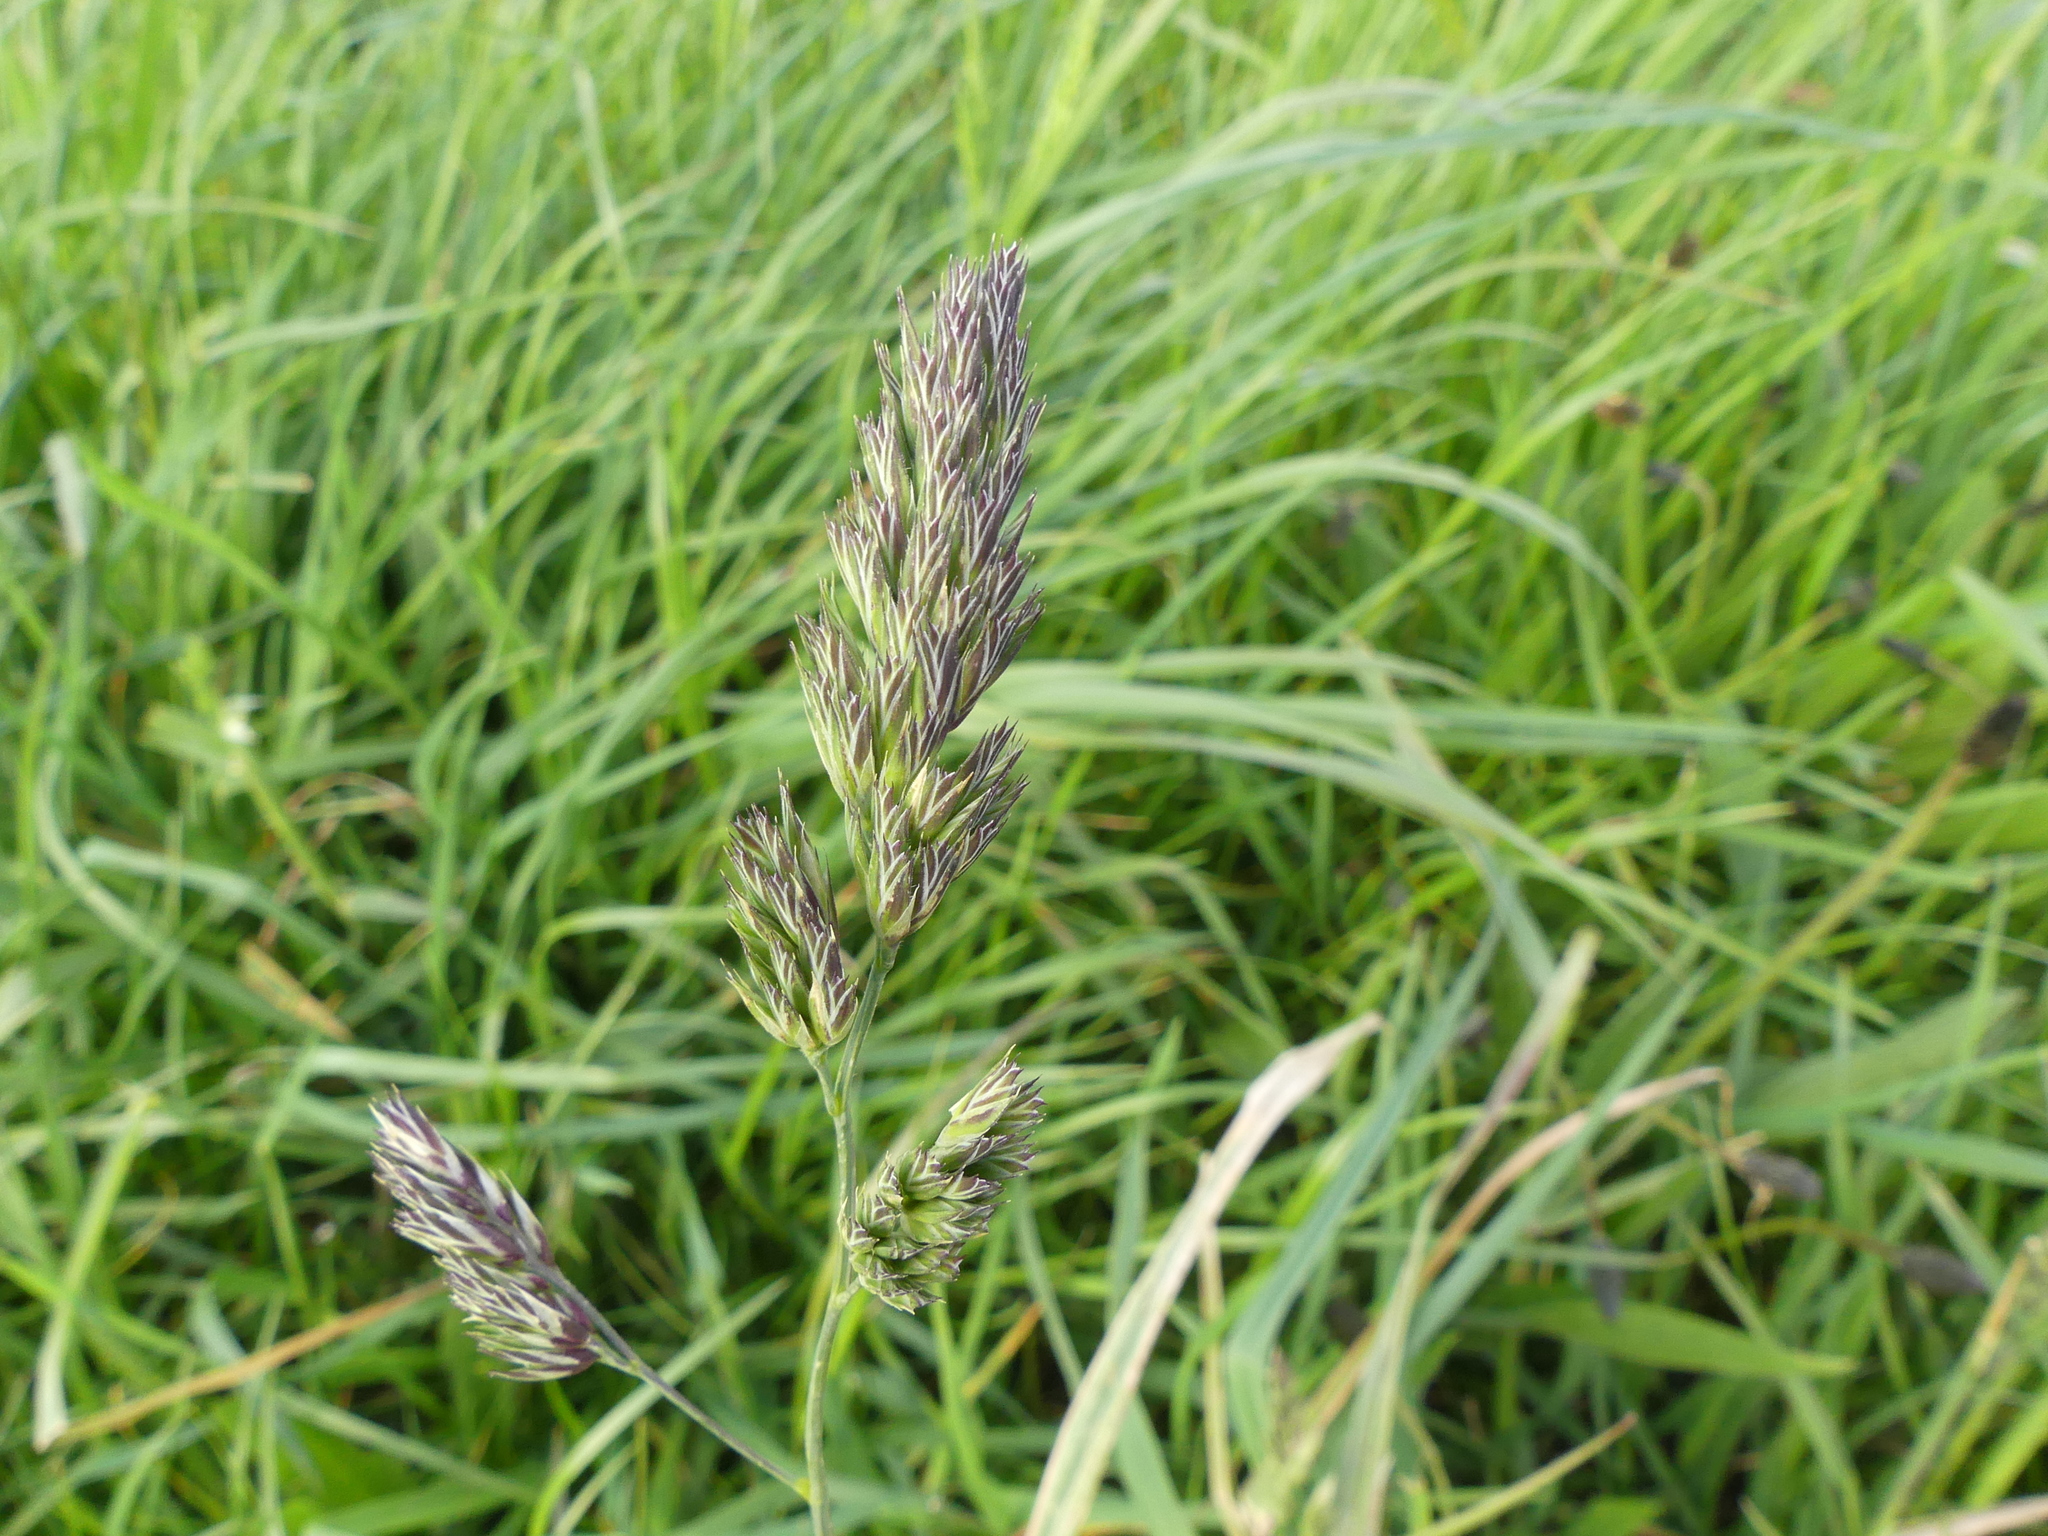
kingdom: Plantae
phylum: Tracheophyta
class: Liliopsida
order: Poales
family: Poaceae
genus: Dactylis
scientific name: Dactylis glomerata
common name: Orchardgrass
